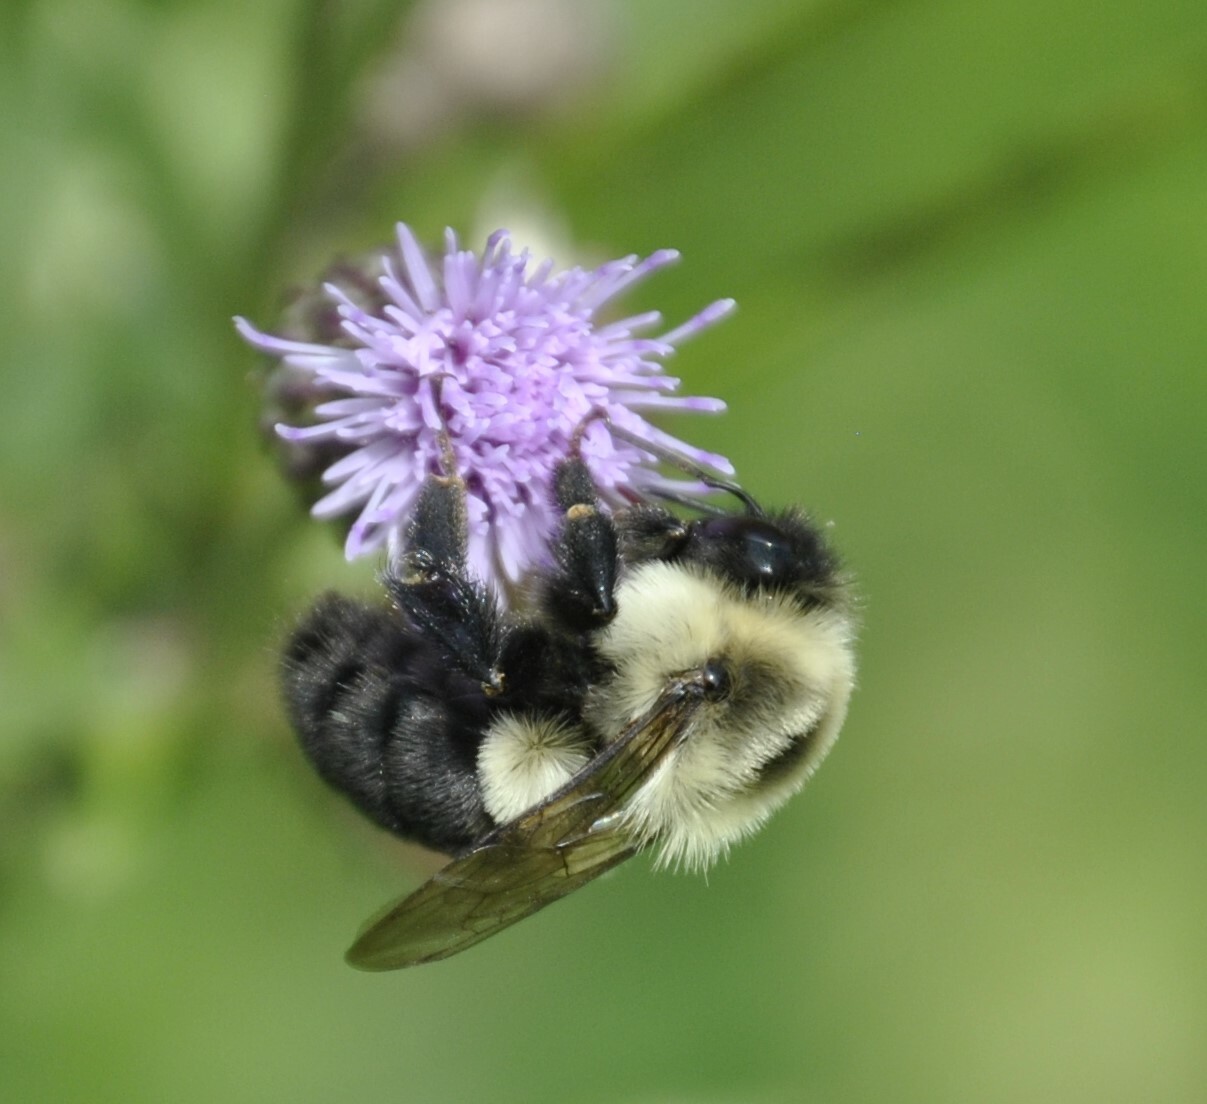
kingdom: Animalia
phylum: Arthropoda
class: Insecta
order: Hymenoptera
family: Apidae
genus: Bombus
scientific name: Bombus impatiens
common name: Common eastern bumble bee
